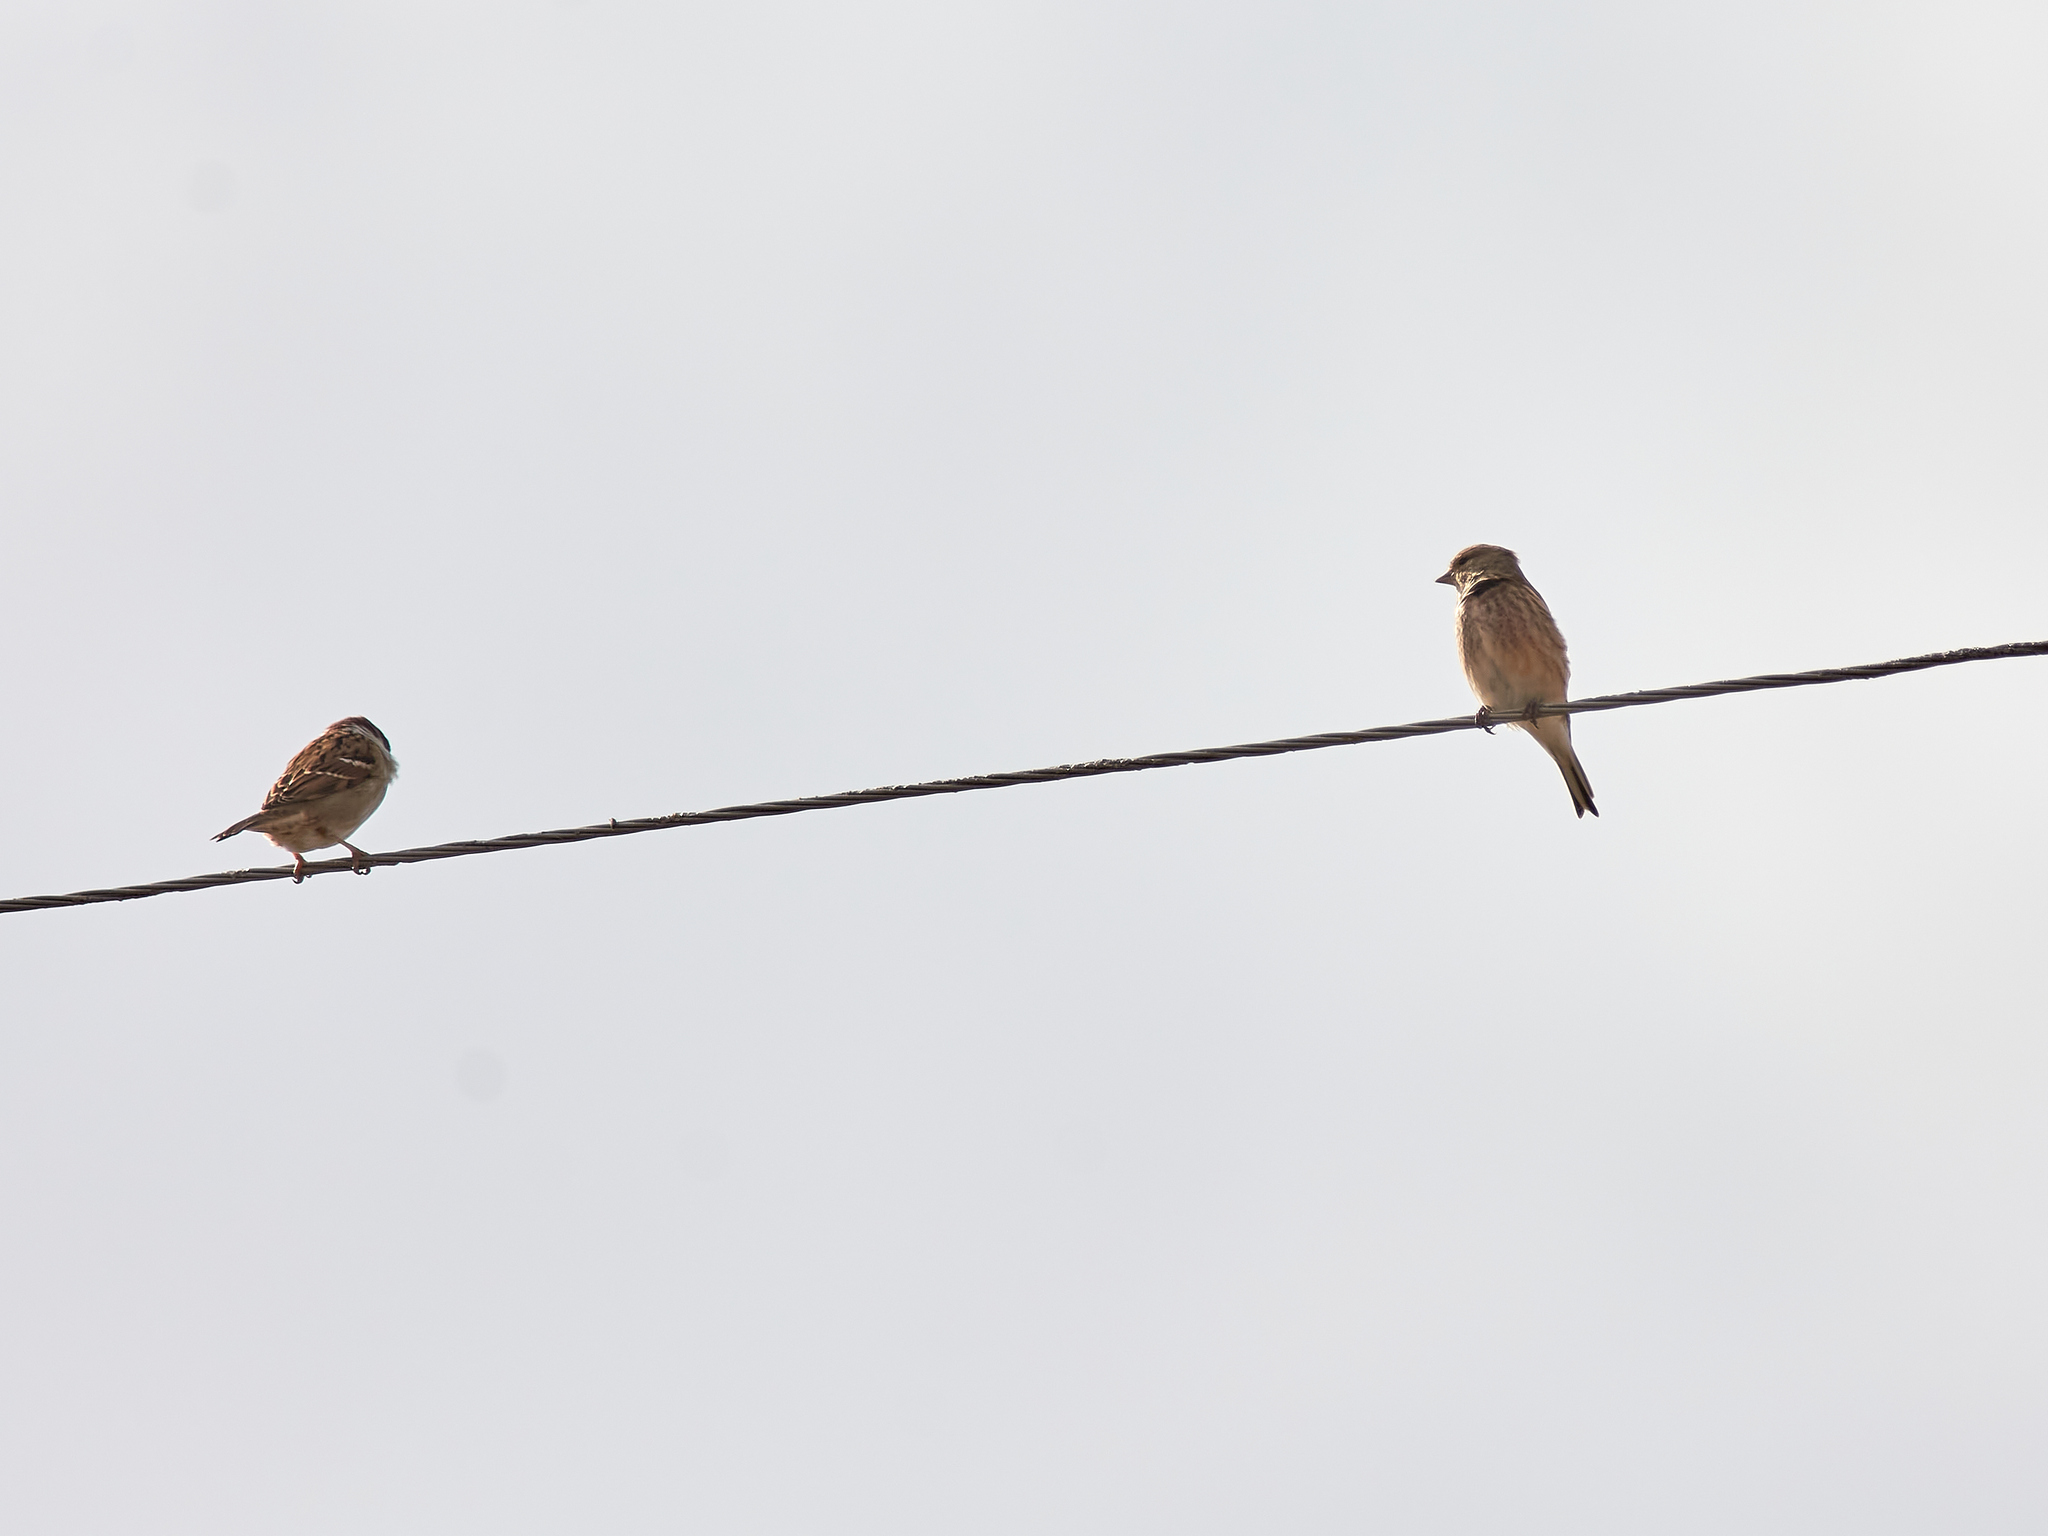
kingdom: Animalia
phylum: Chordata
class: Aves
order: Passeriformes
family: Passeridae
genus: Passer
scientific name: Passer montanus
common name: Eurasian tree sparrow
